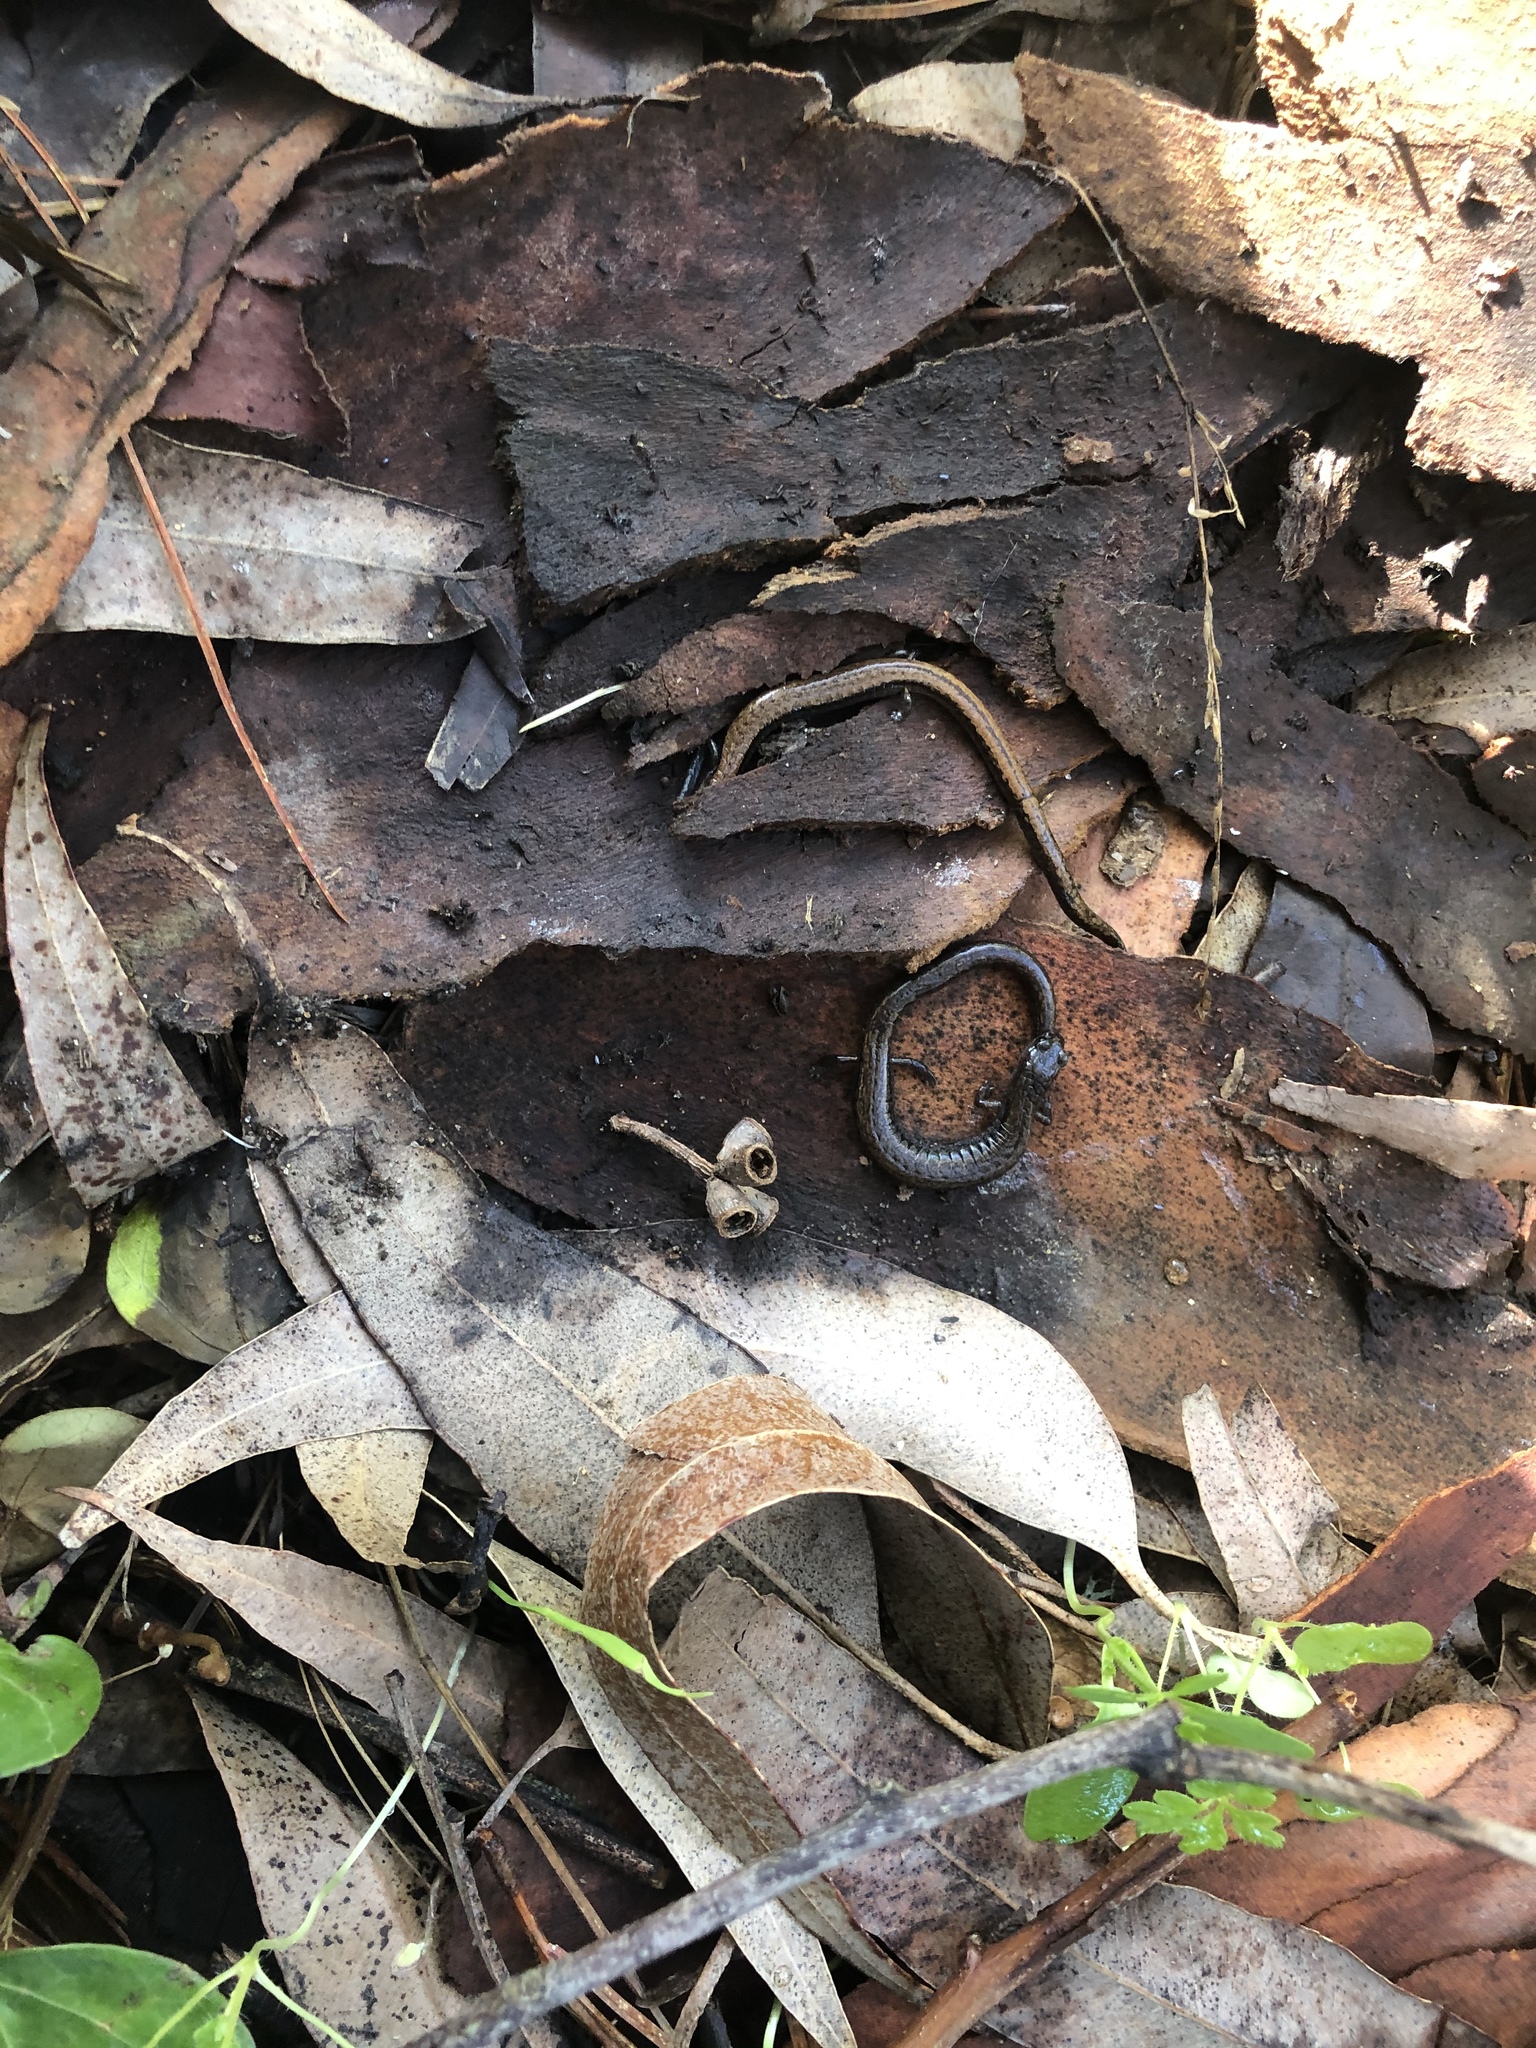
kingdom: Animalia
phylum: Chordata
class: Amphibia
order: Caudata
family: Plethodontidae
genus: Batrachoseps
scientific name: Batrachoseps attenuatus
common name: California slender salamander
